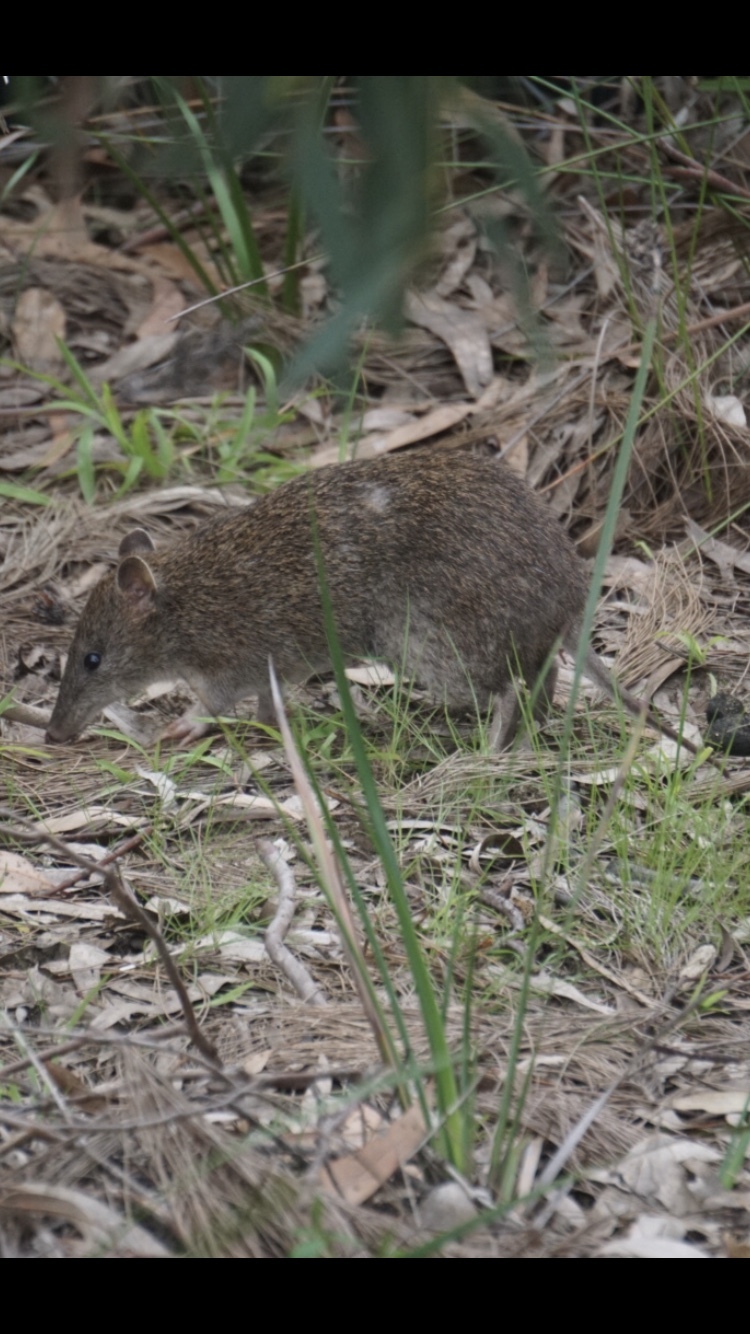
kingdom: Animalia
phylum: Chordata
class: Mammalia
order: Peramelemorphia
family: Peramelidae
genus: Isoodon
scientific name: Isoodon obesulus
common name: Southern brown bandicoot
